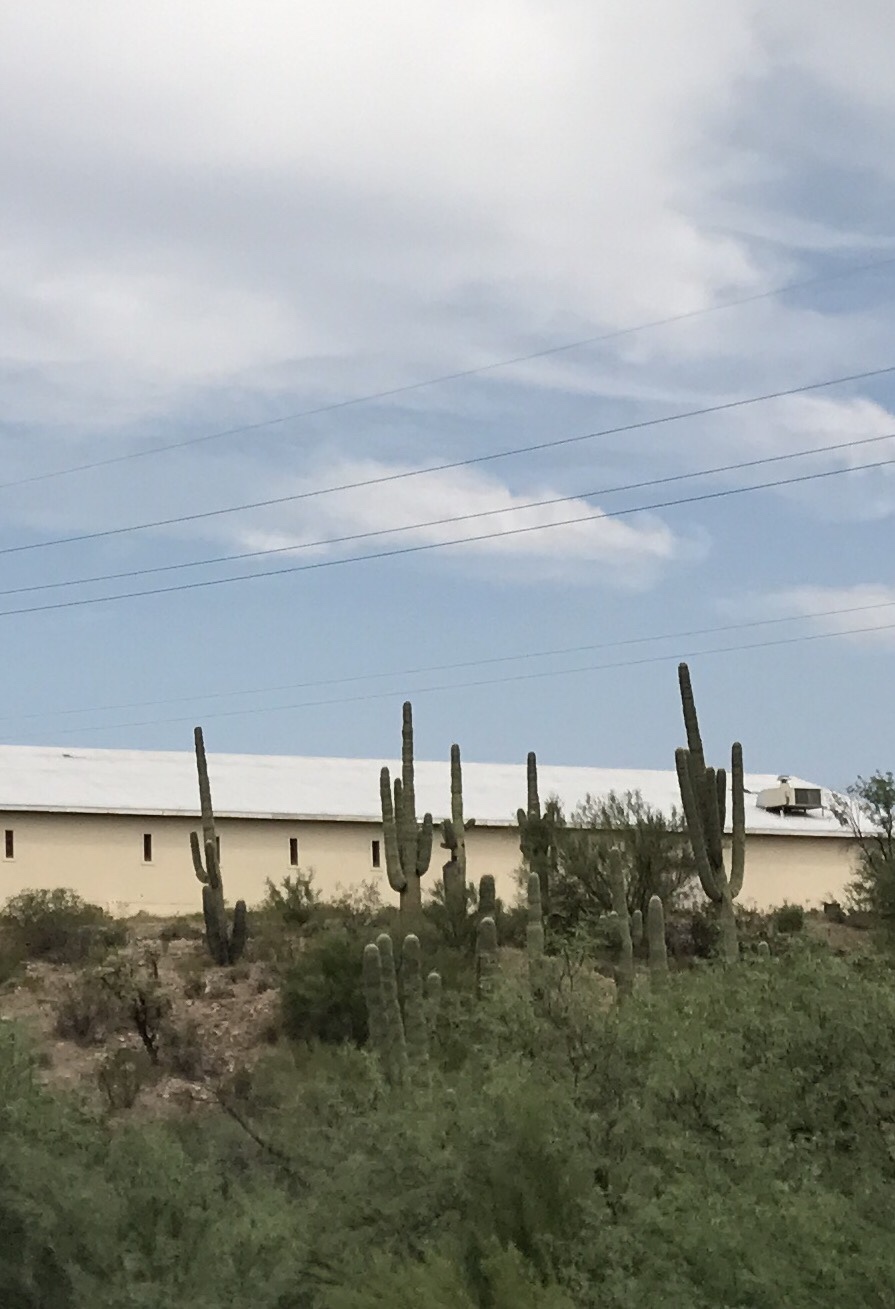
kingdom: Plantae
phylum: Tracheophyta
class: Magnoliopsida
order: Caryophyllales
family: Cactaceae
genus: Carnegiea
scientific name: Carnegiea gigantea
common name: Saguaro
